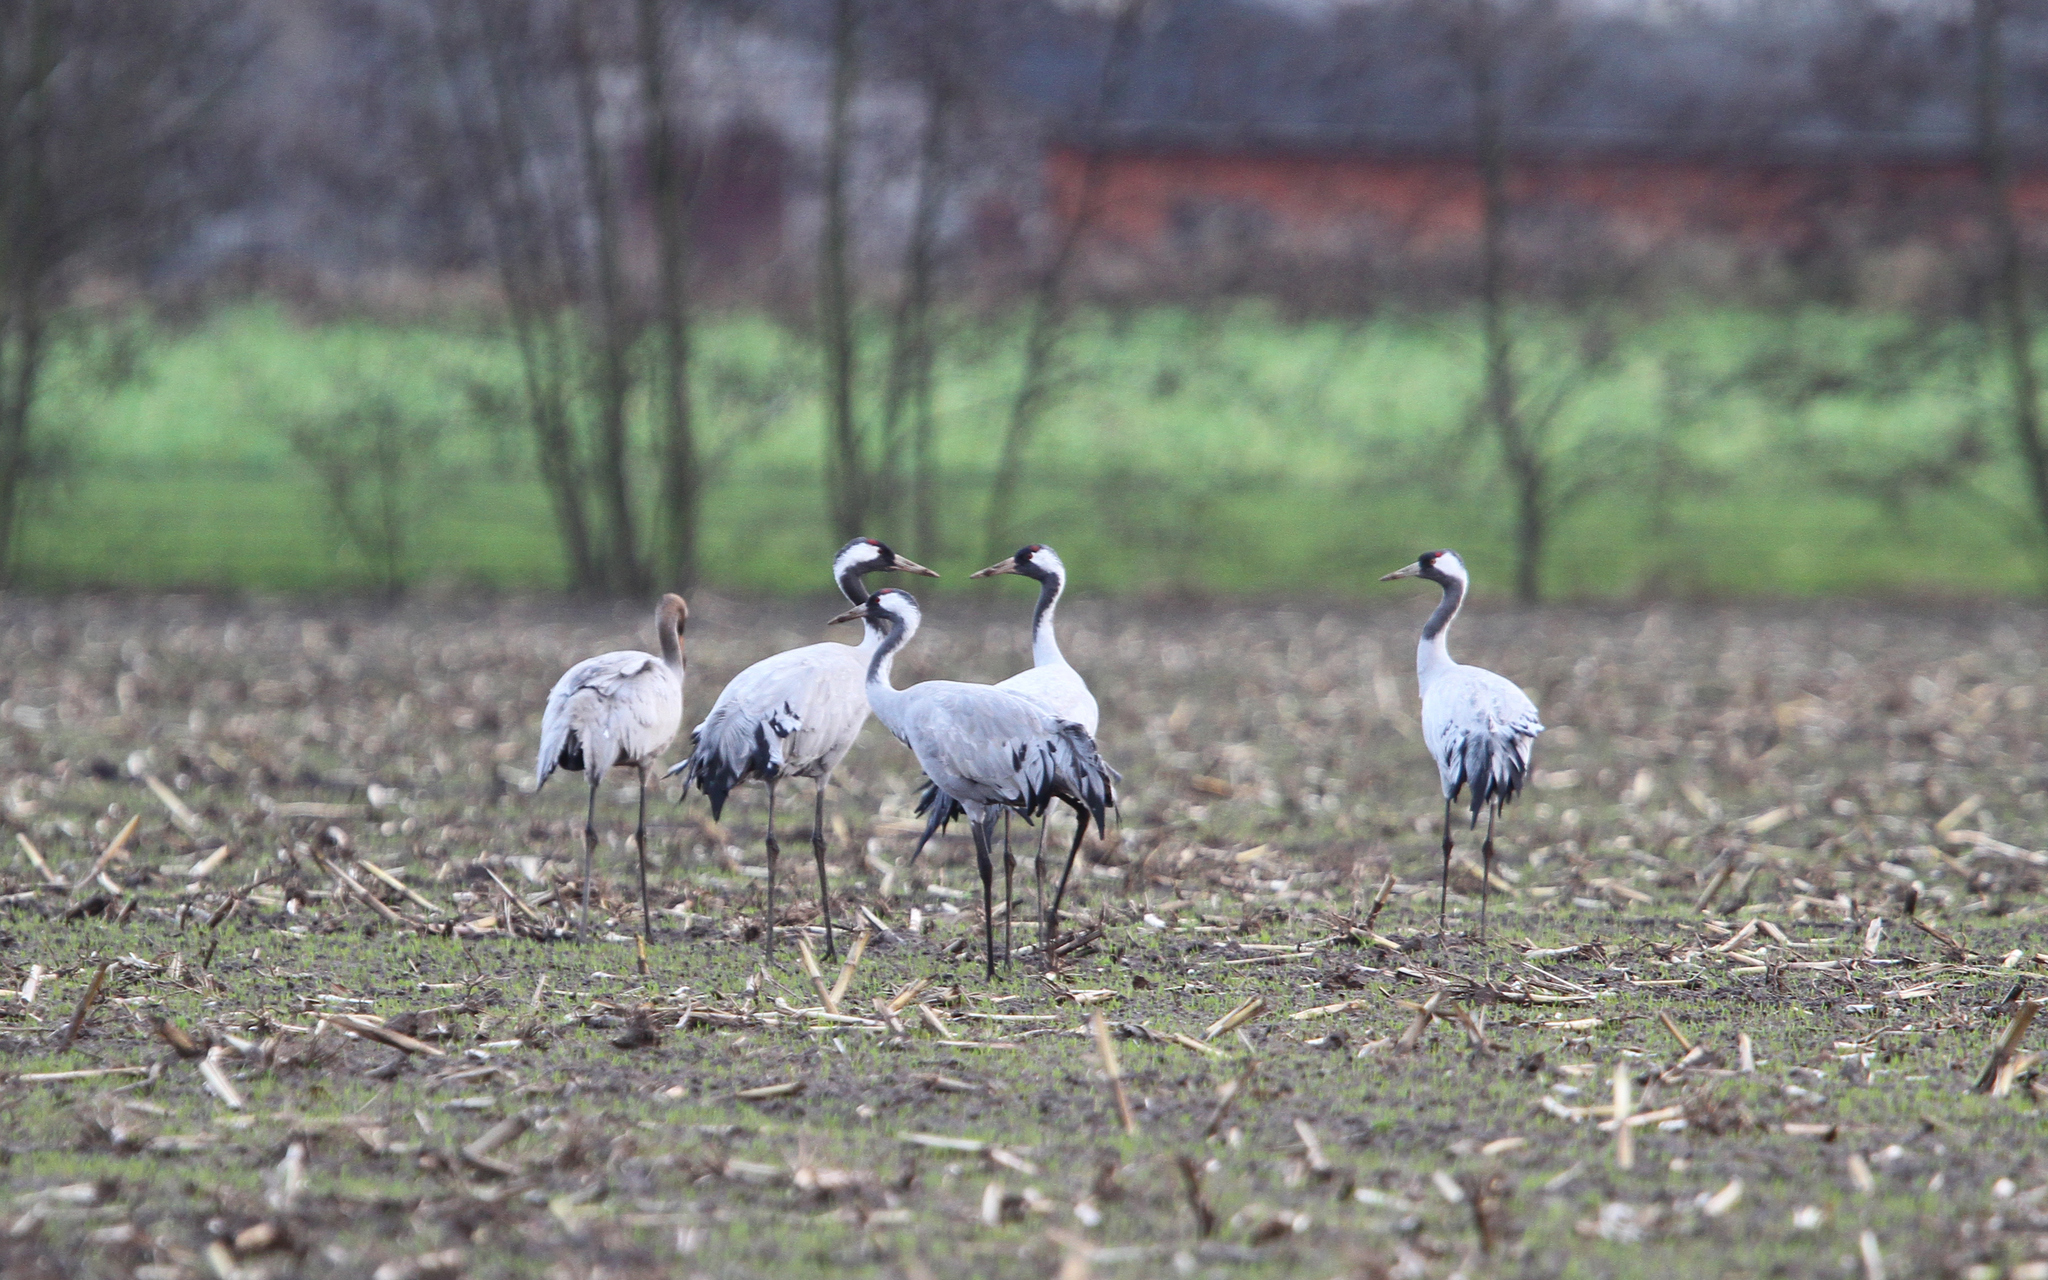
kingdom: Animalia
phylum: Chordata
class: Aves
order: Gruiformes
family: Gruidae
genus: Grus
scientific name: Grus grus
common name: Common crane
